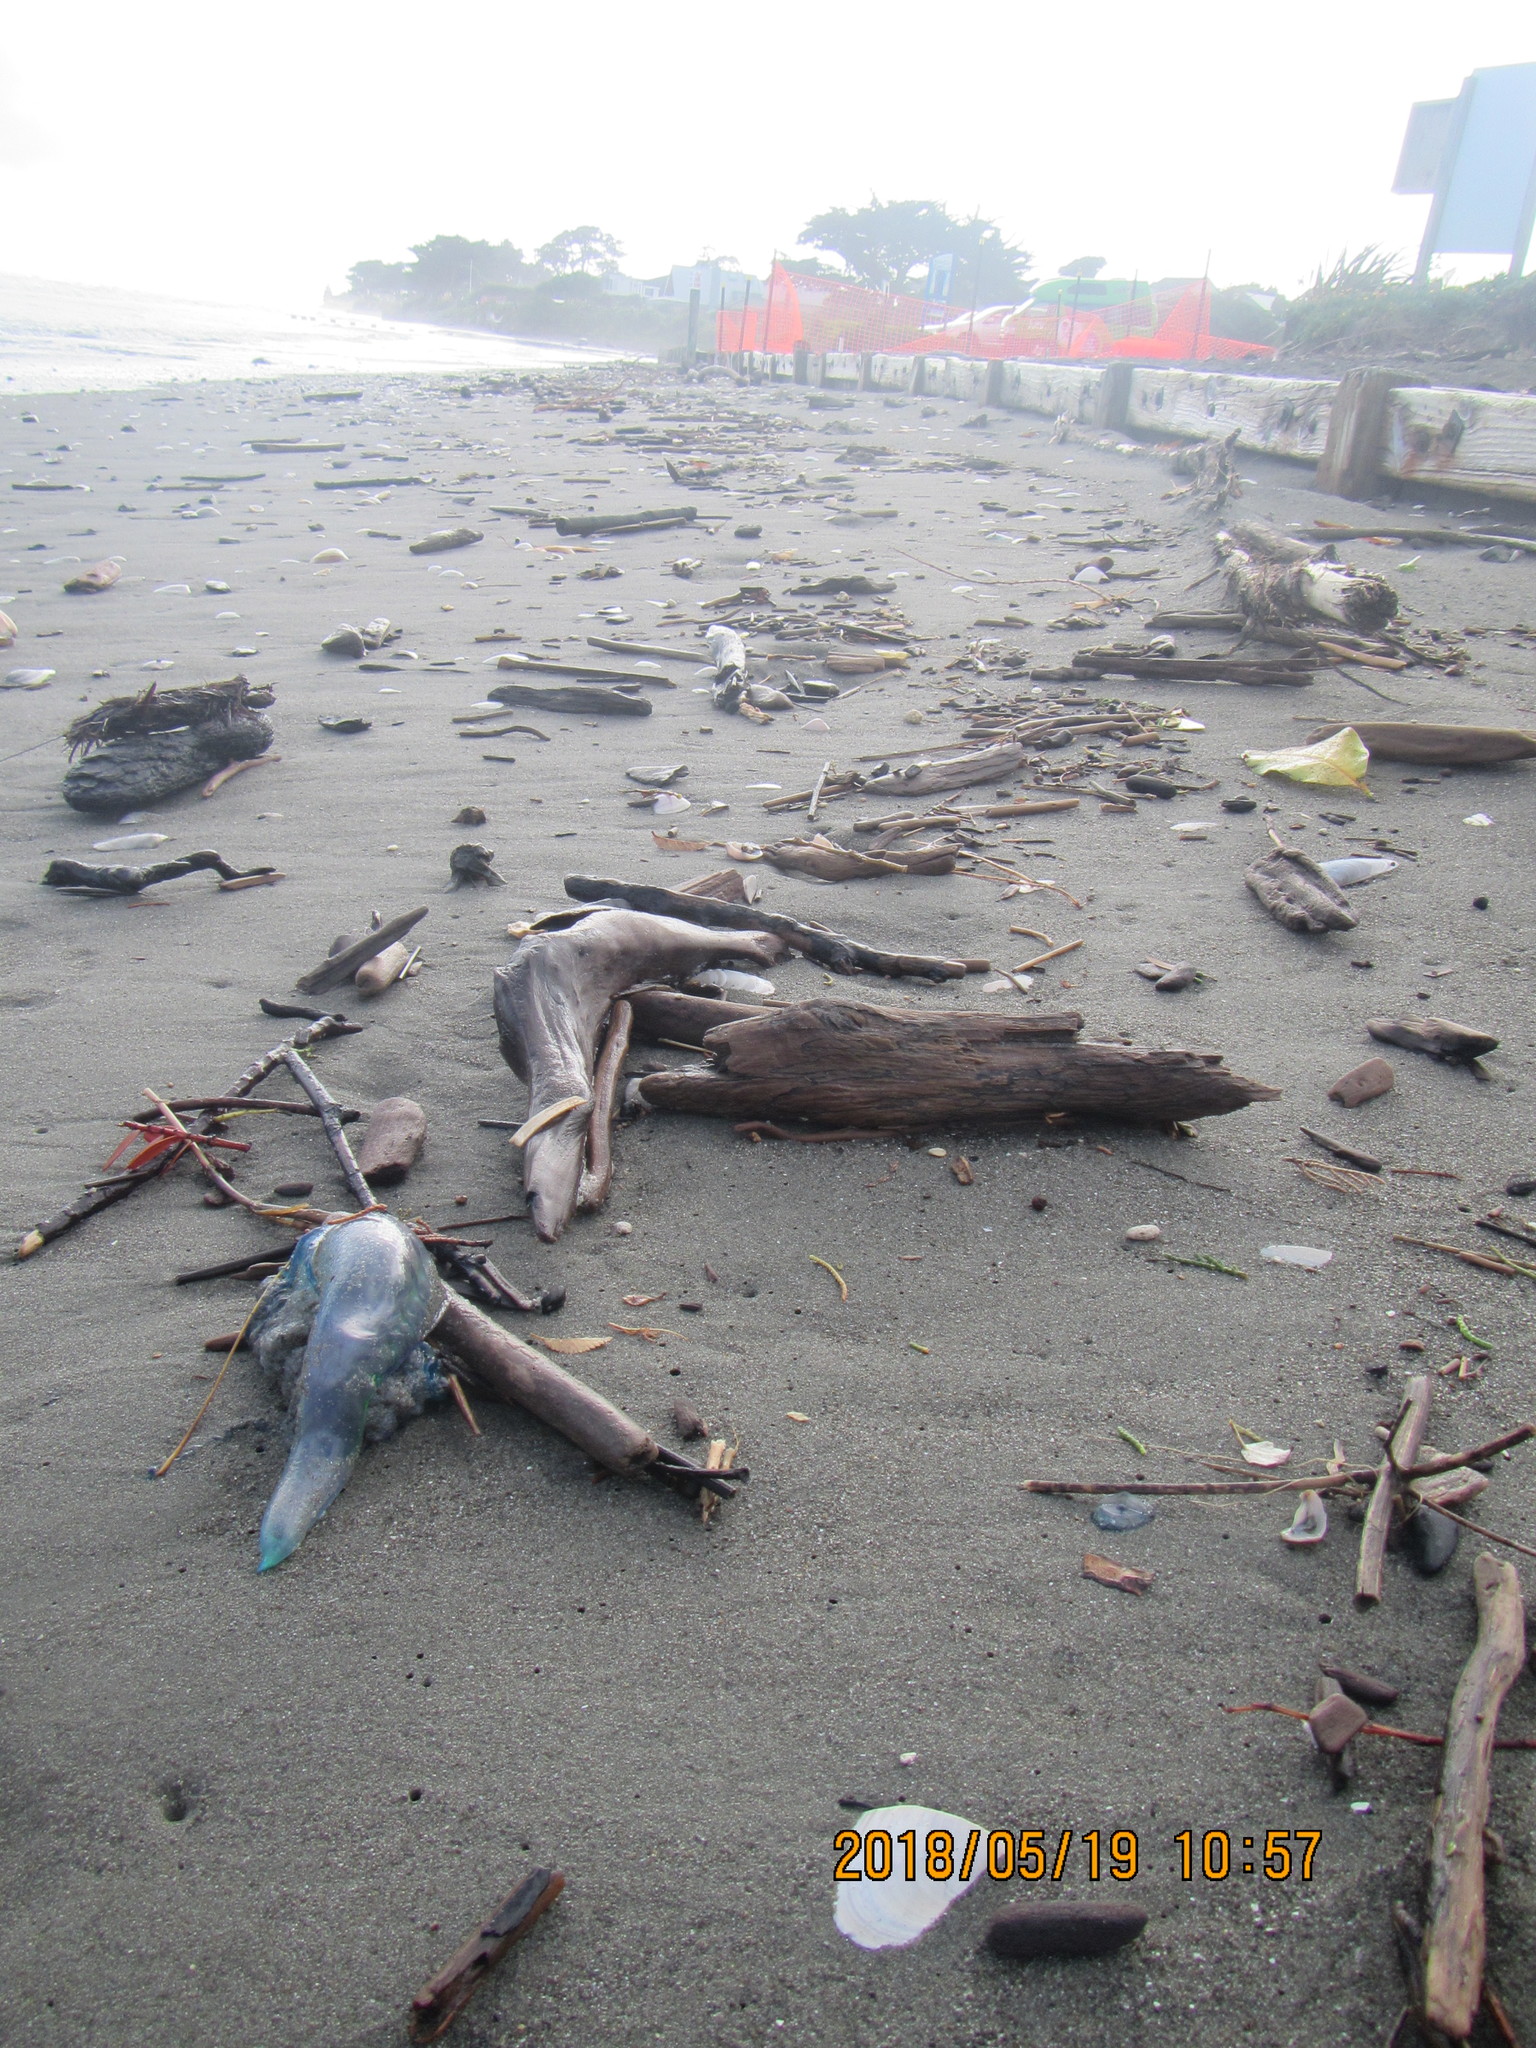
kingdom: Animalia
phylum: Cnidaria
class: Hydrozoa
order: Siphonophorae
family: Physaliidae
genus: Physalia
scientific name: Physalia physalis
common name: Portuguese man-of-war
